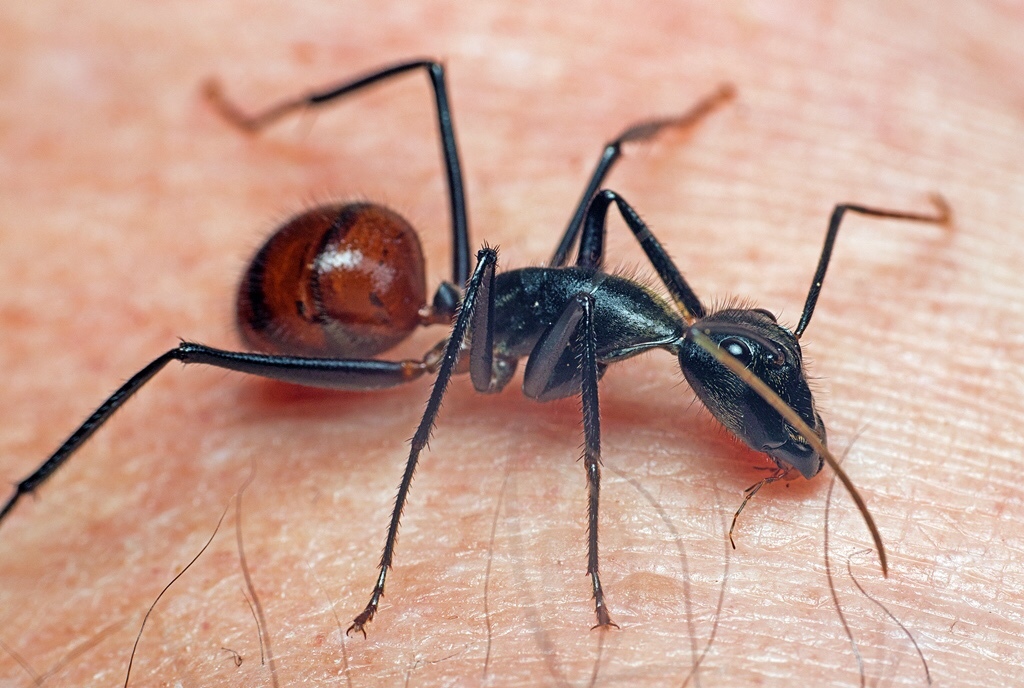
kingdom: Animalia
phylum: Arthropoda
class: Insecta
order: Hymenoptera
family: Formicidae
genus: Dinomyrmex
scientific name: Dinomyrmex
